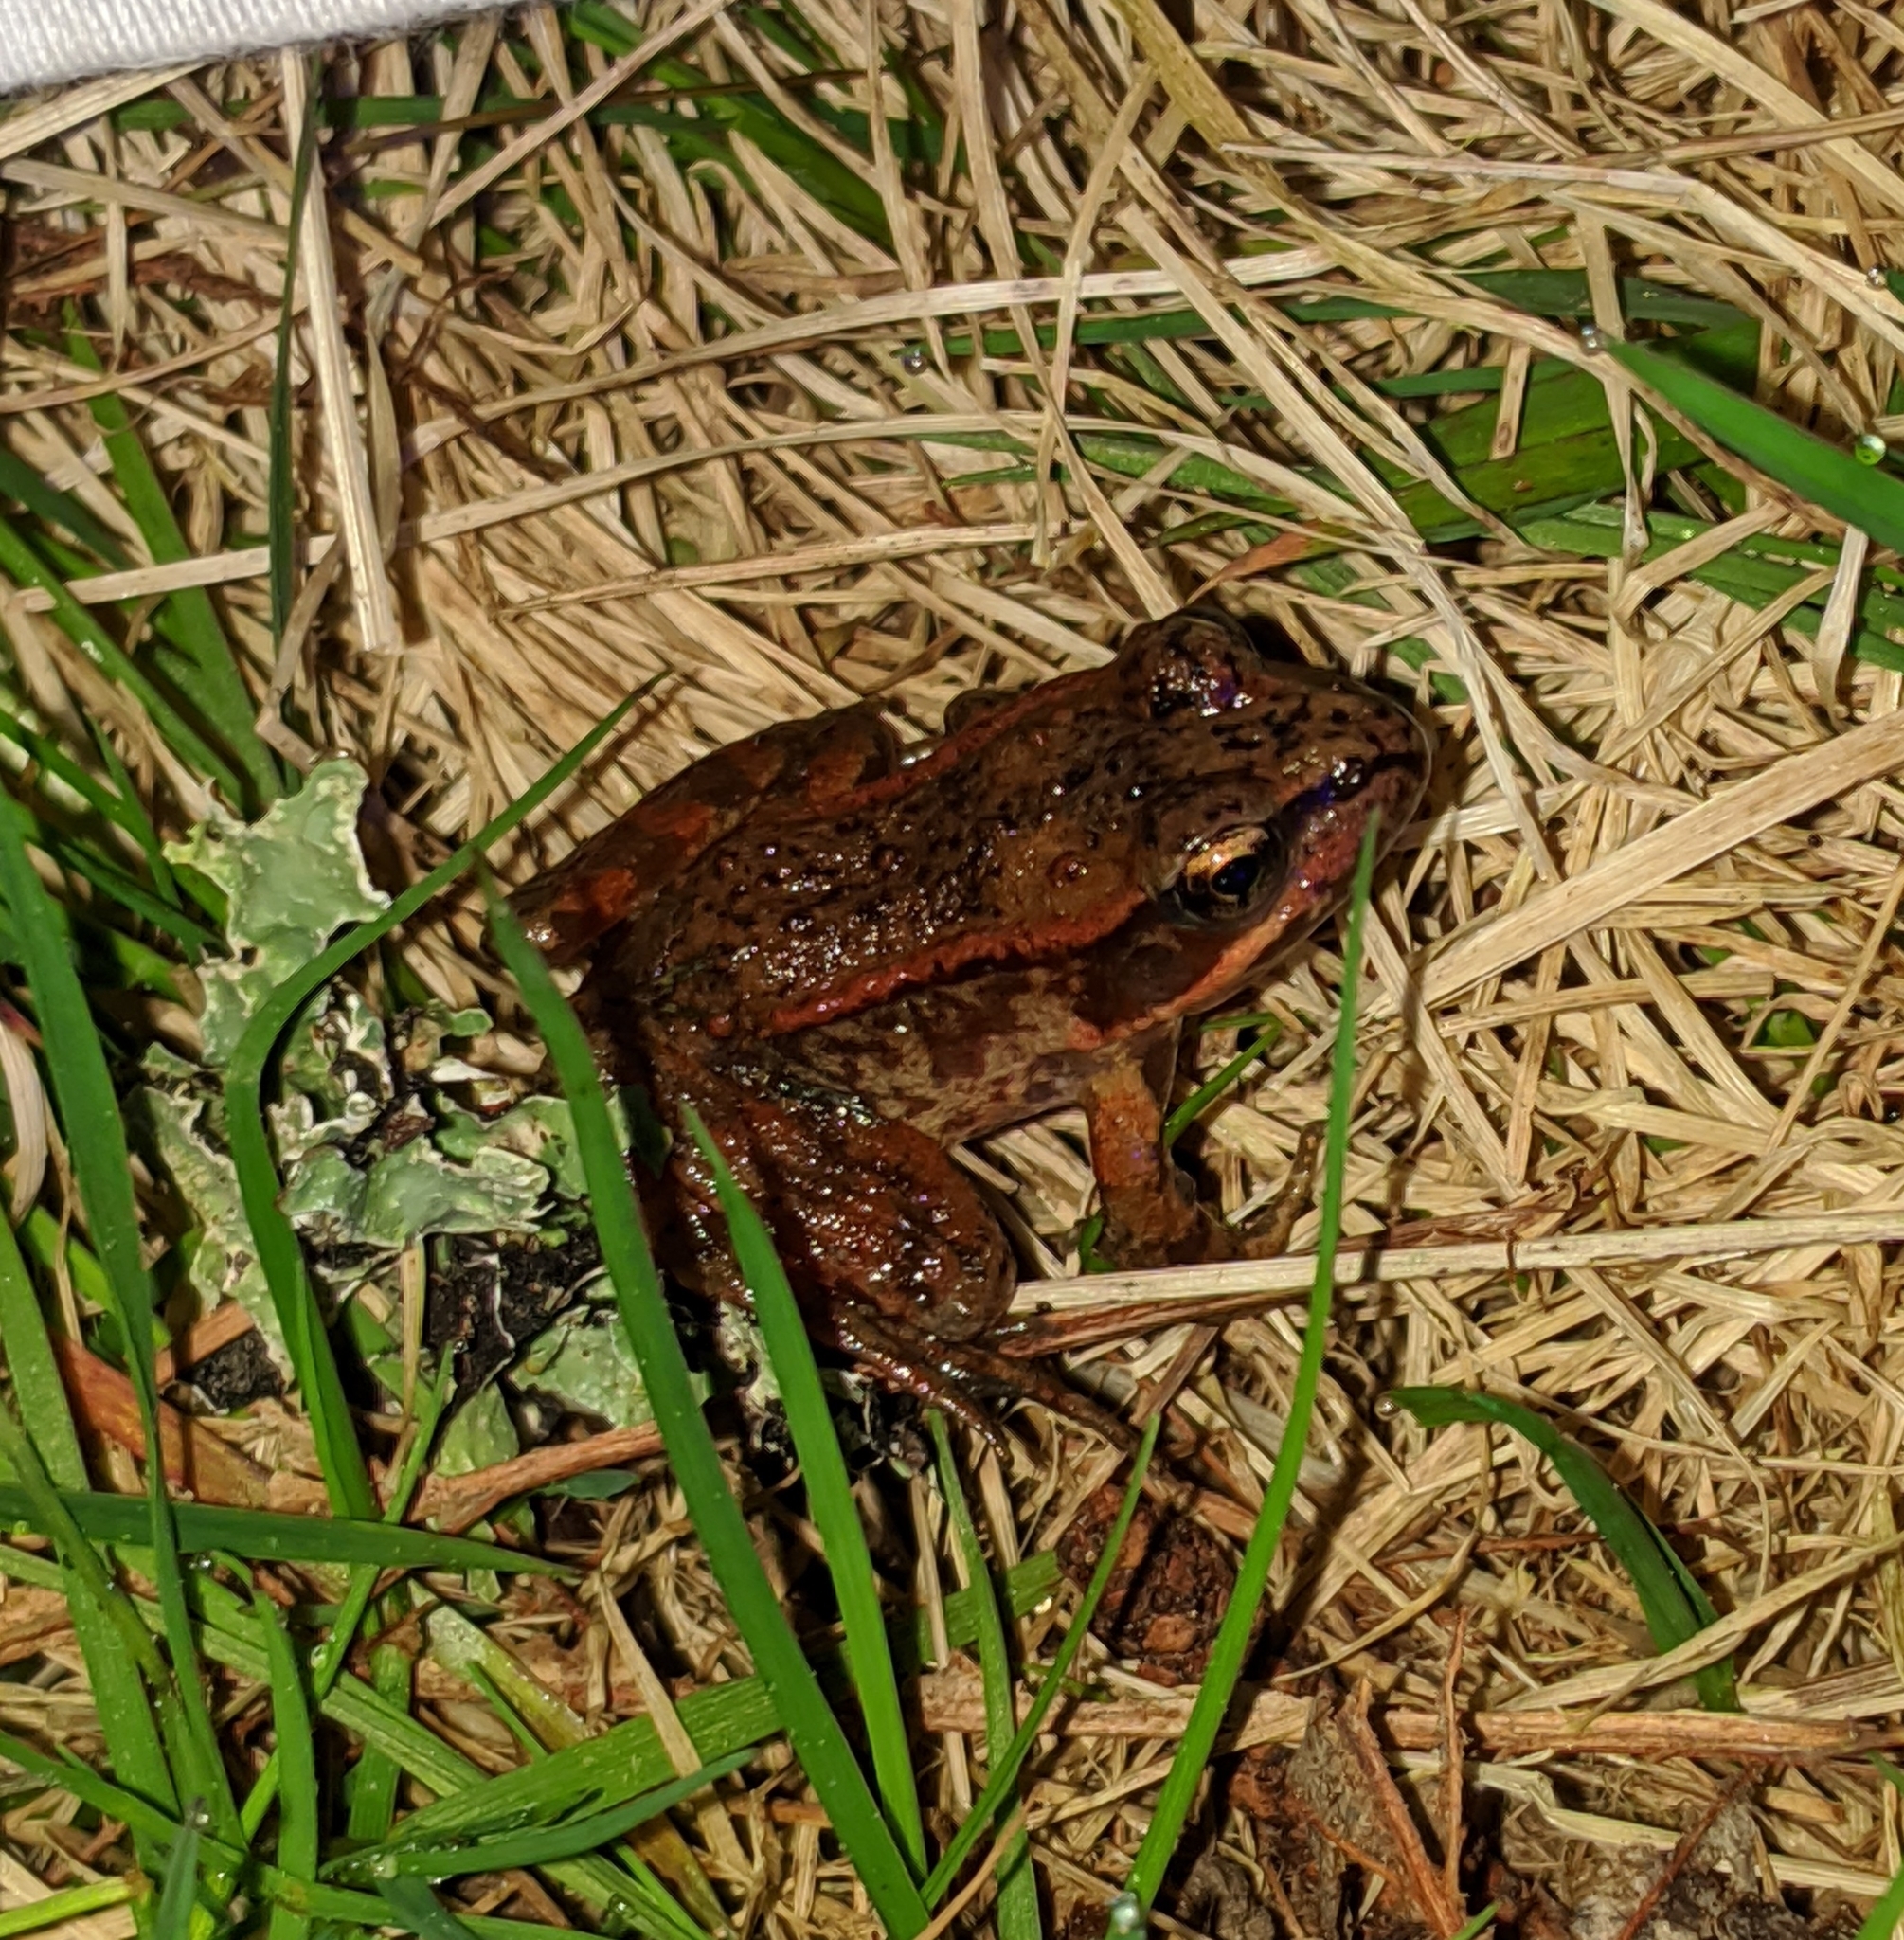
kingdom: Animalia
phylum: Chordata
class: Amphibia
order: Anura
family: Ranidae
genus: Rana
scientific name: Rana aurora
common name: Red-legged frog
